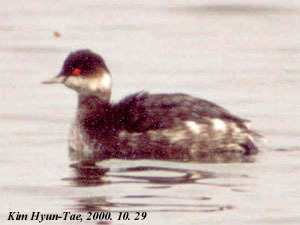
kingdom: Animalia
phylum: Chordata
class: Aves
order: Podicipediformes
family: Podicipedidae
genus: Podiceps
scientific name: Podiceps nigricollis
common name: Black-necked grebe
